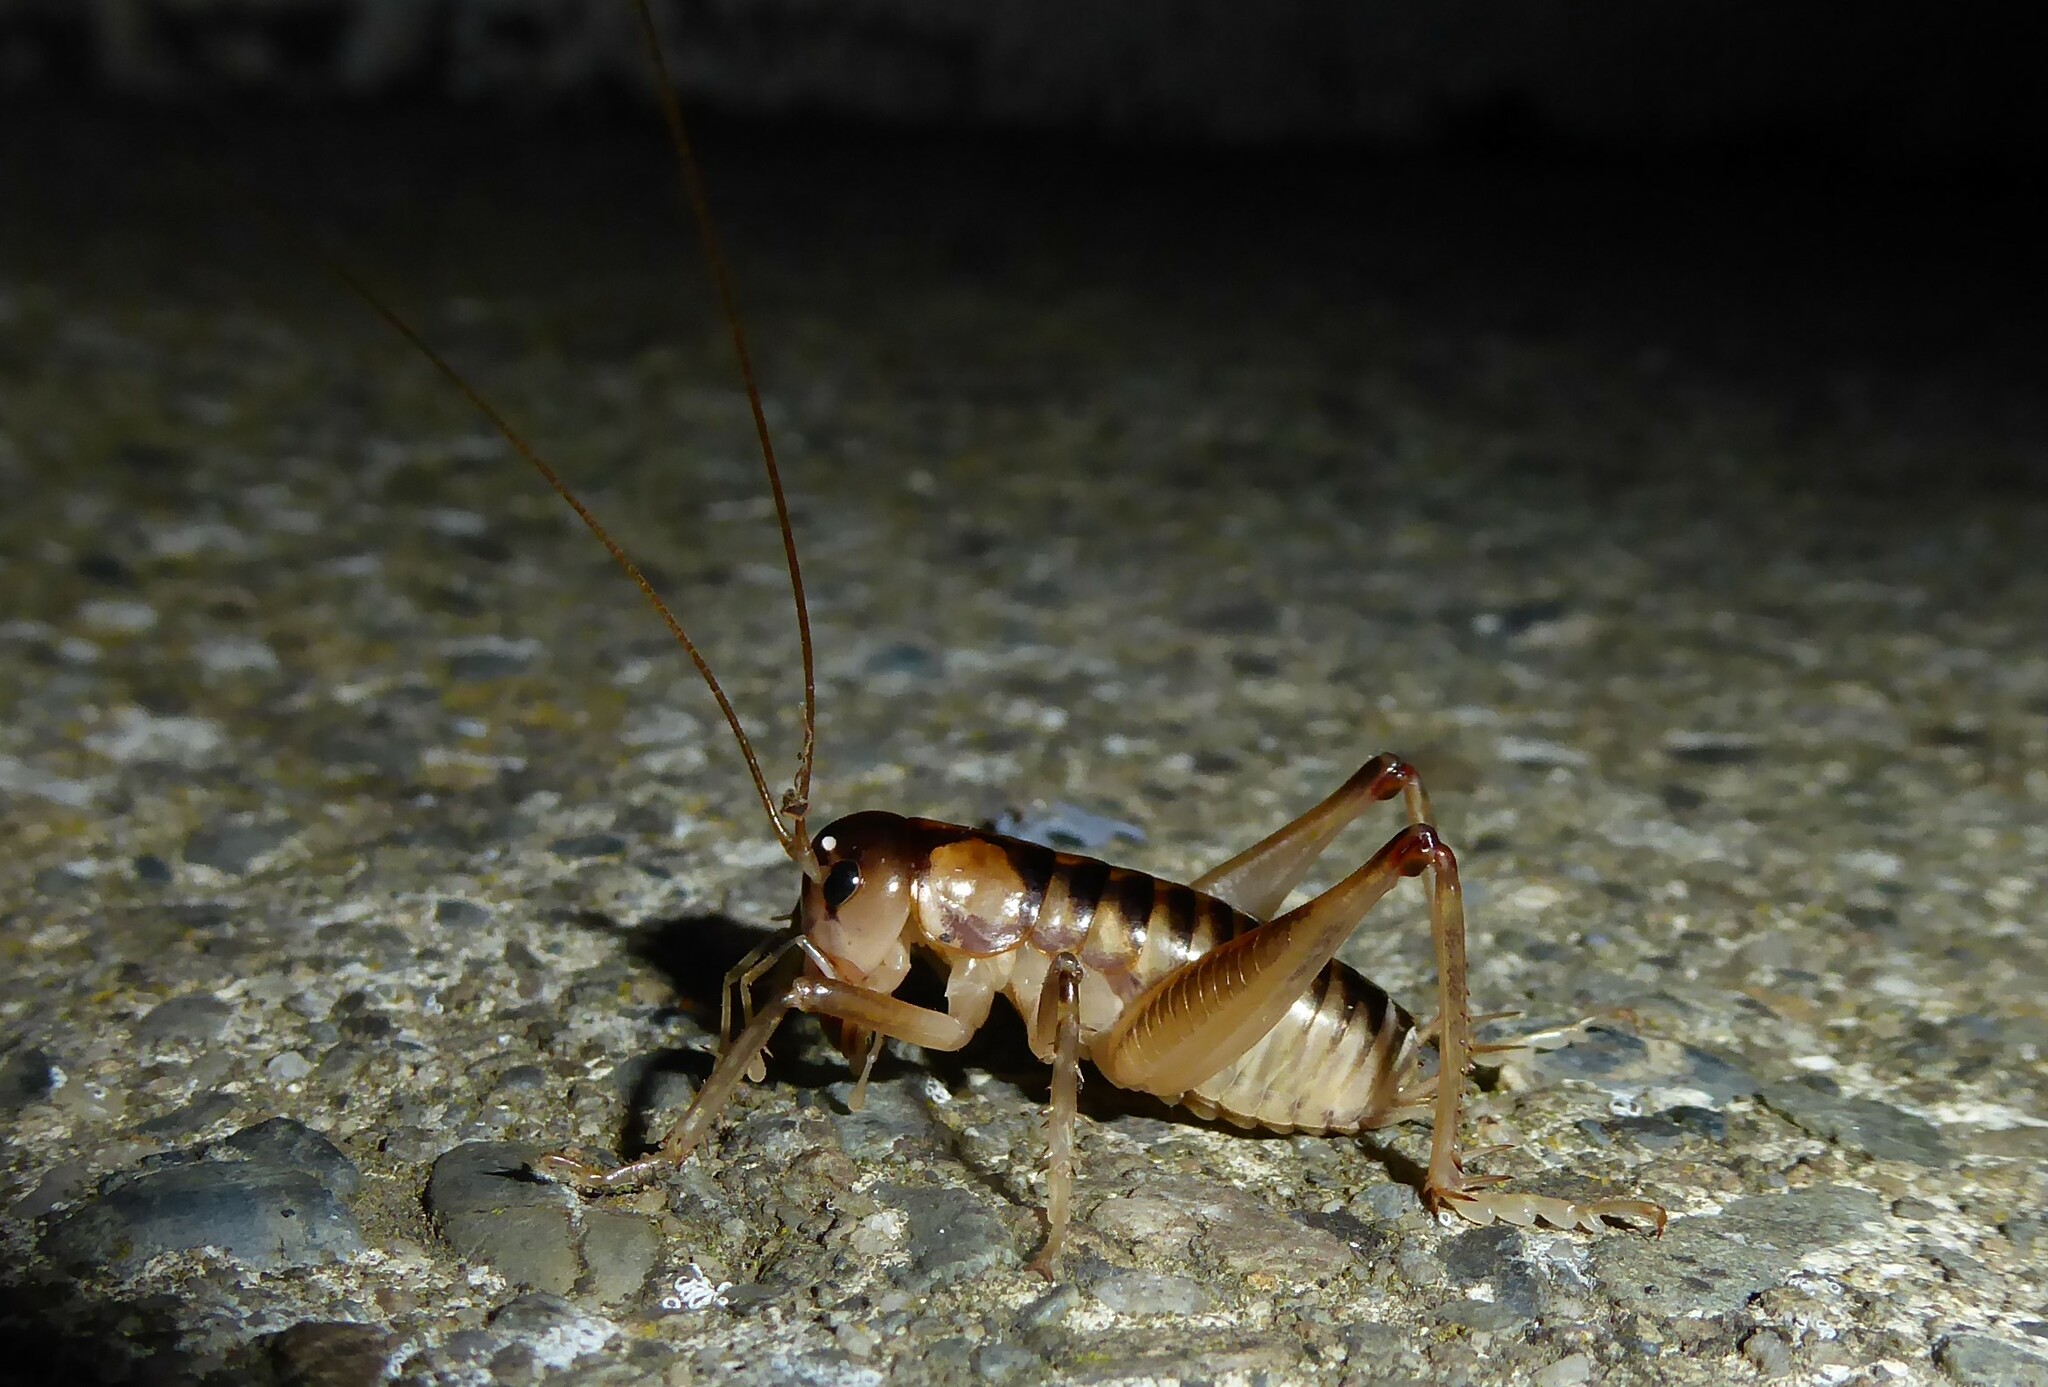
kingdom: Animalia
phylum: Arthropoda
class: Insecta
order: Orthoptera
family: Anostostomatidae
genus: Hemiandrus
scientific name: Hemiandrus maia
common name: Otago ground weta
